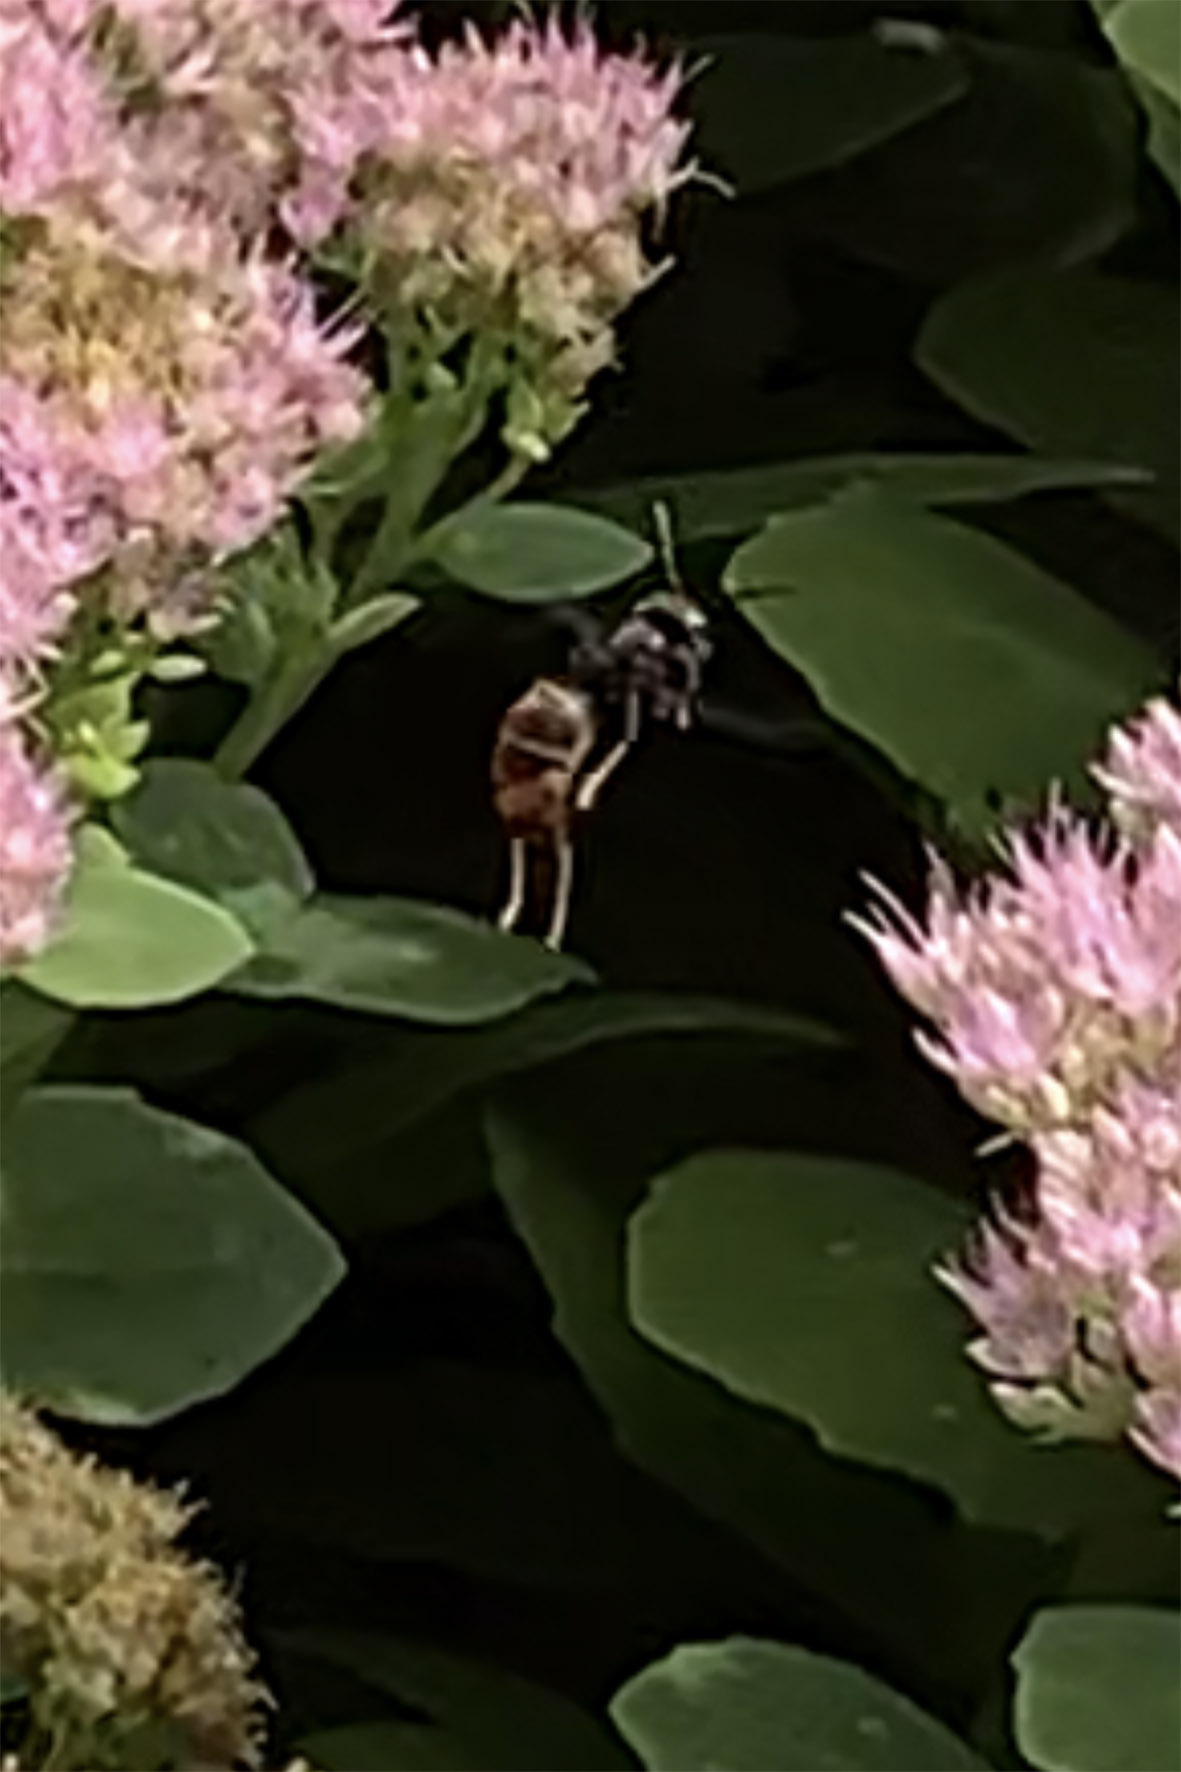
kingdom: Animalia
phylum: Arthropoda
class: Insecta
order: Hymenoptera
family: Vespidae
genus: Vespa
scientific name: Vespa velutina
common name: Asian hornet
